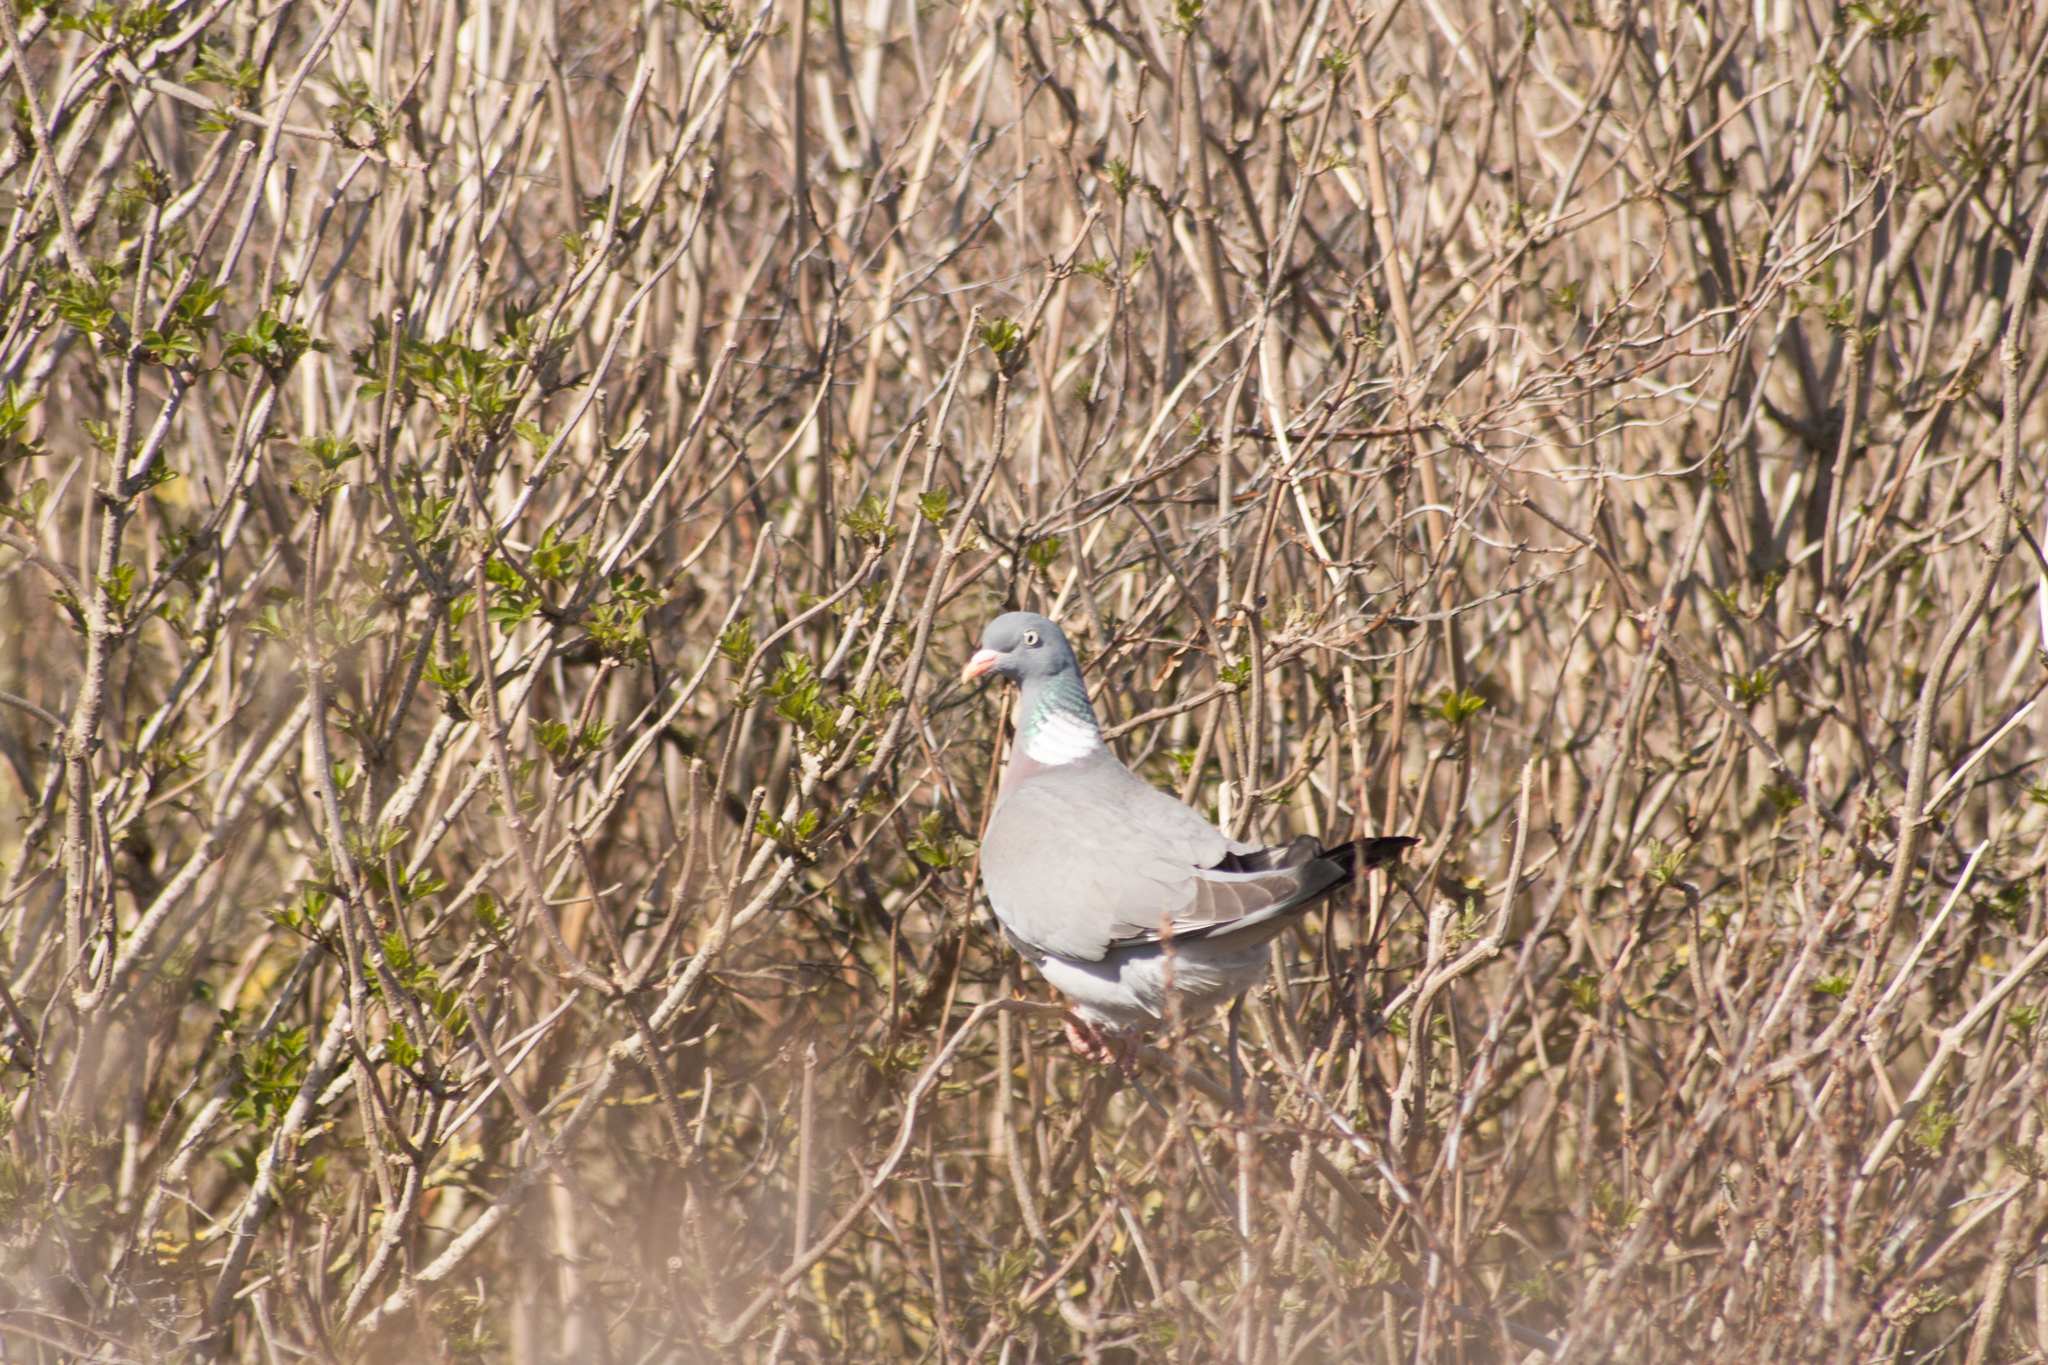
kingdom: Animalia
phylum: Chordata
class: Aves
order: Columbiformes
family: Columbidae
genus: Columba
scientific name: Columba palumbus
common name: Common wood pigeon
